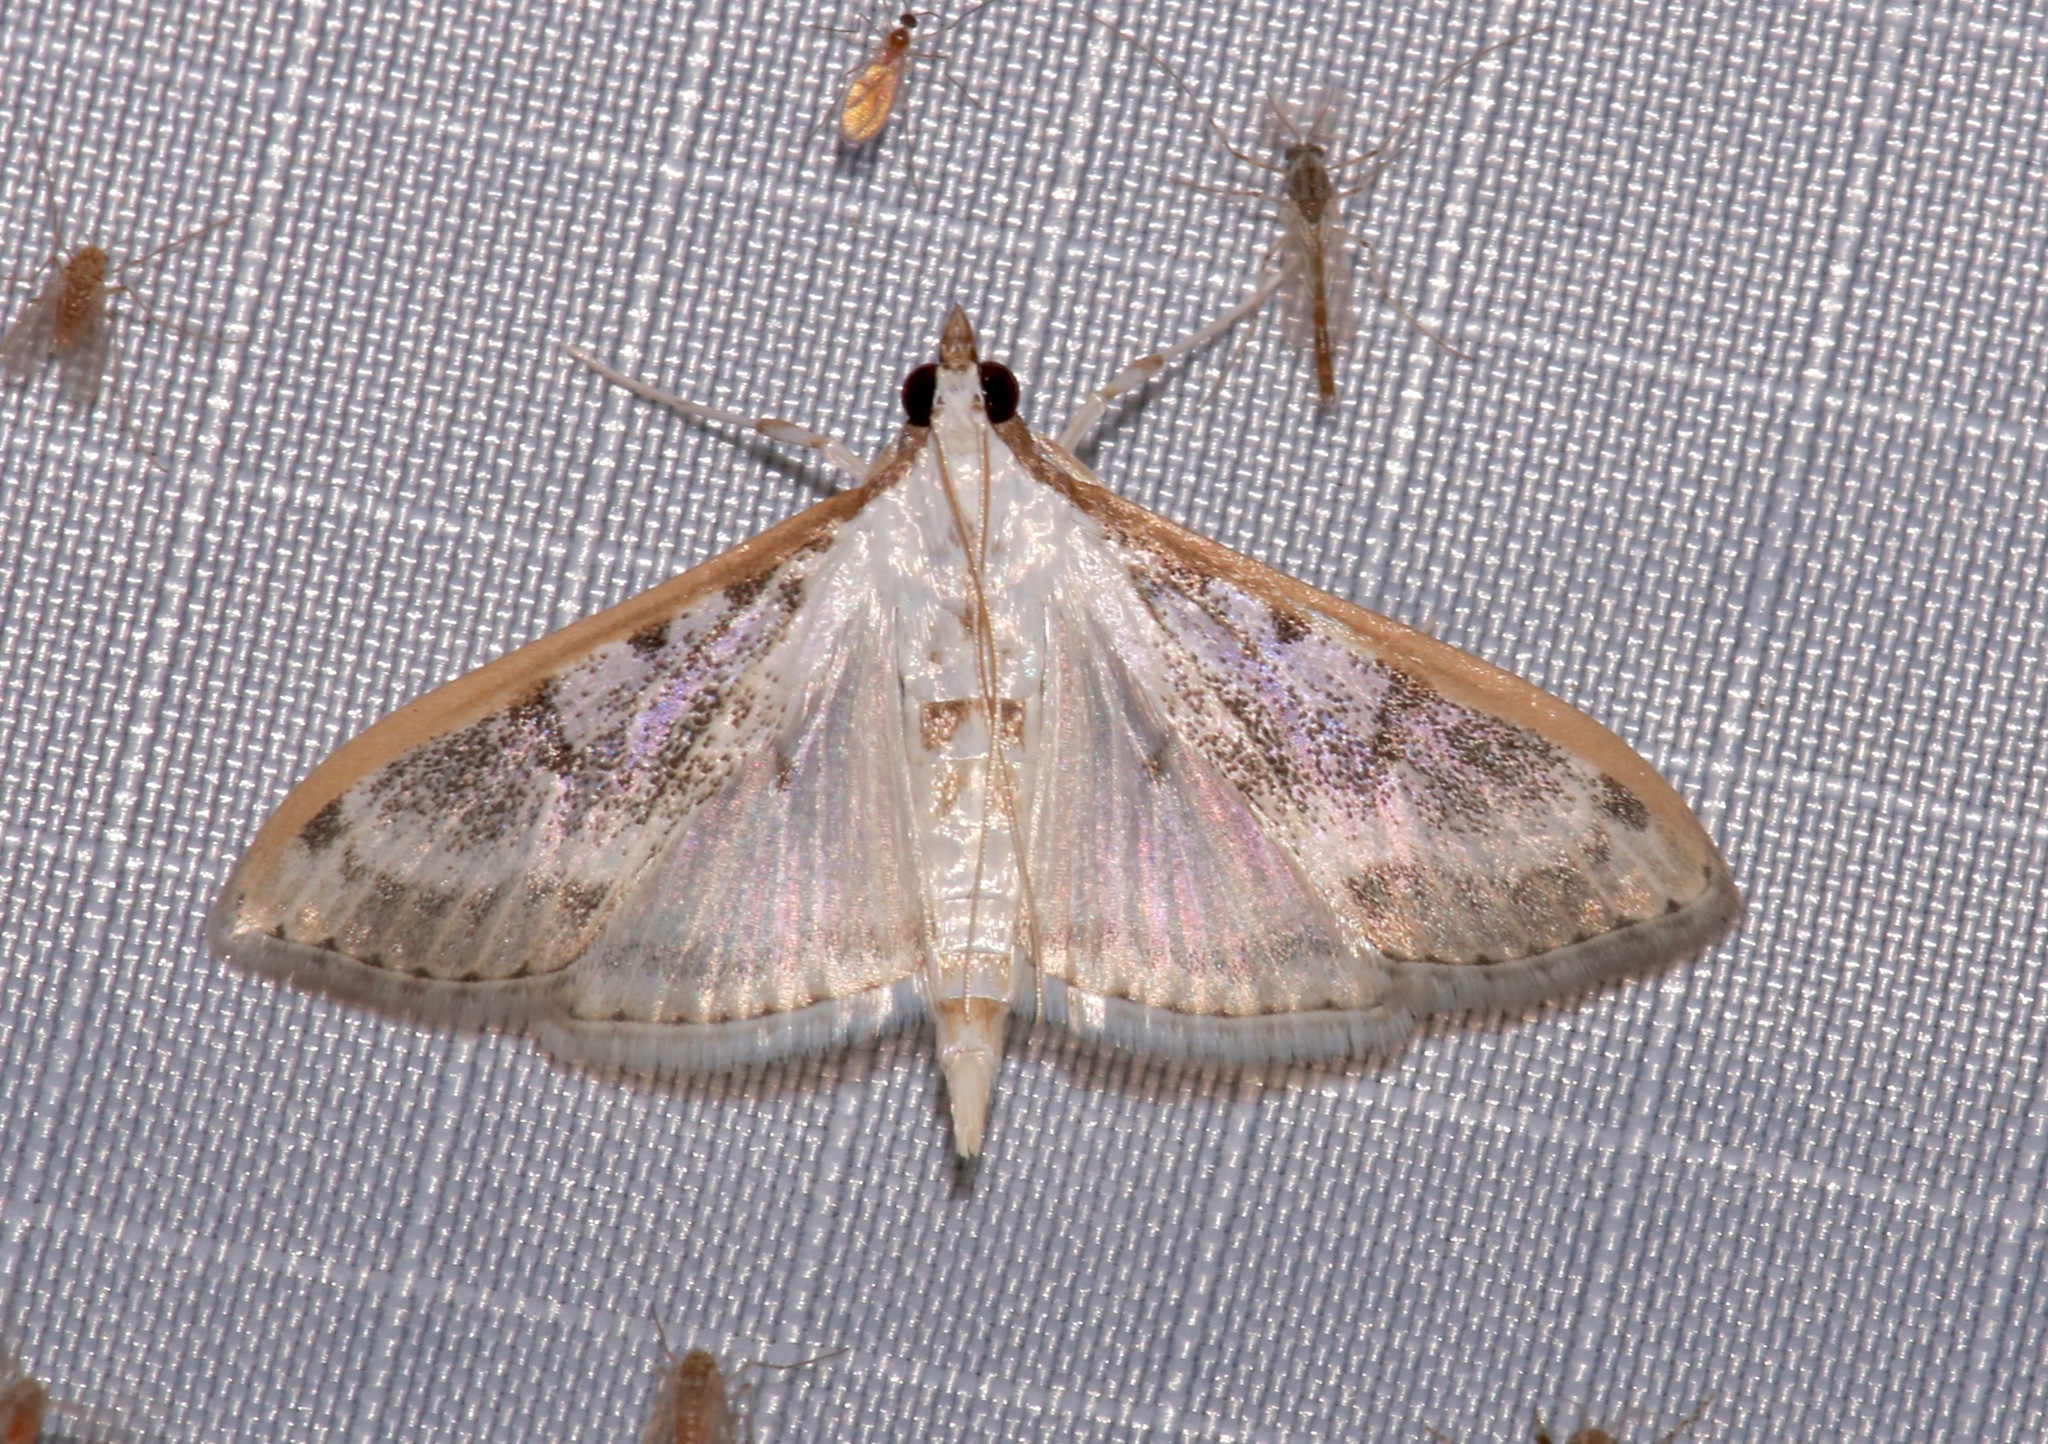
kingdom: Animalia
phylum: Arthropoda
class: Insecta
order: Lepidoptera
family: Crambidae
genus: Palpita
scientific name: Palpita gracilalis
